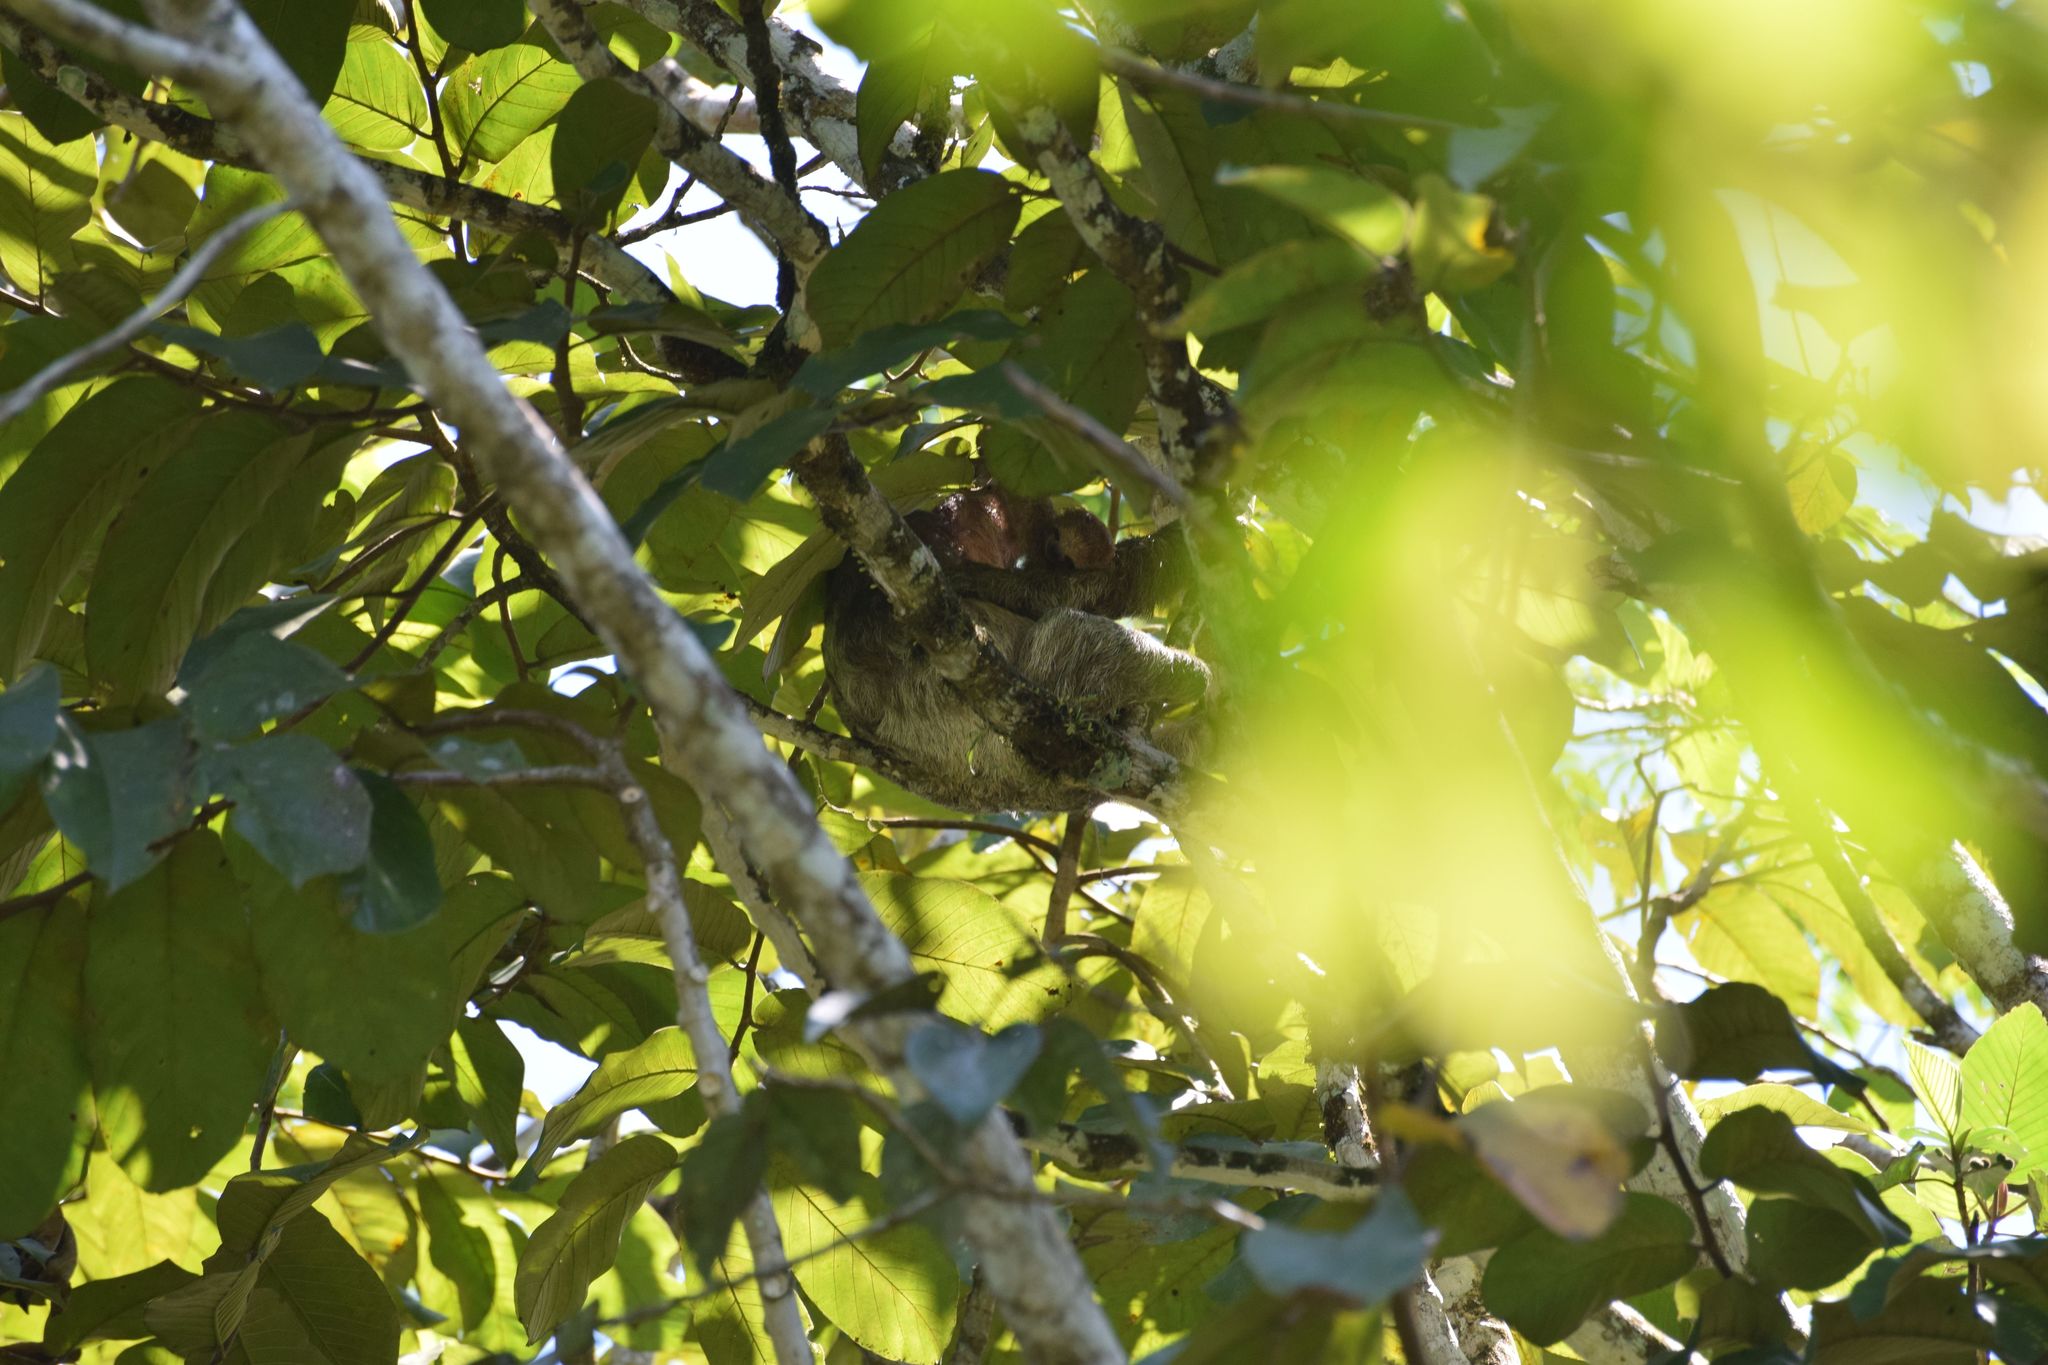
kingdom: Animalia
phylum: Chordata
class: Mammalia
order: Pilosa
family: Bradypodidae
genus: Bradypus
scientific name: Bradypus variegatus
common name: Brown-throated three-toed sloth
